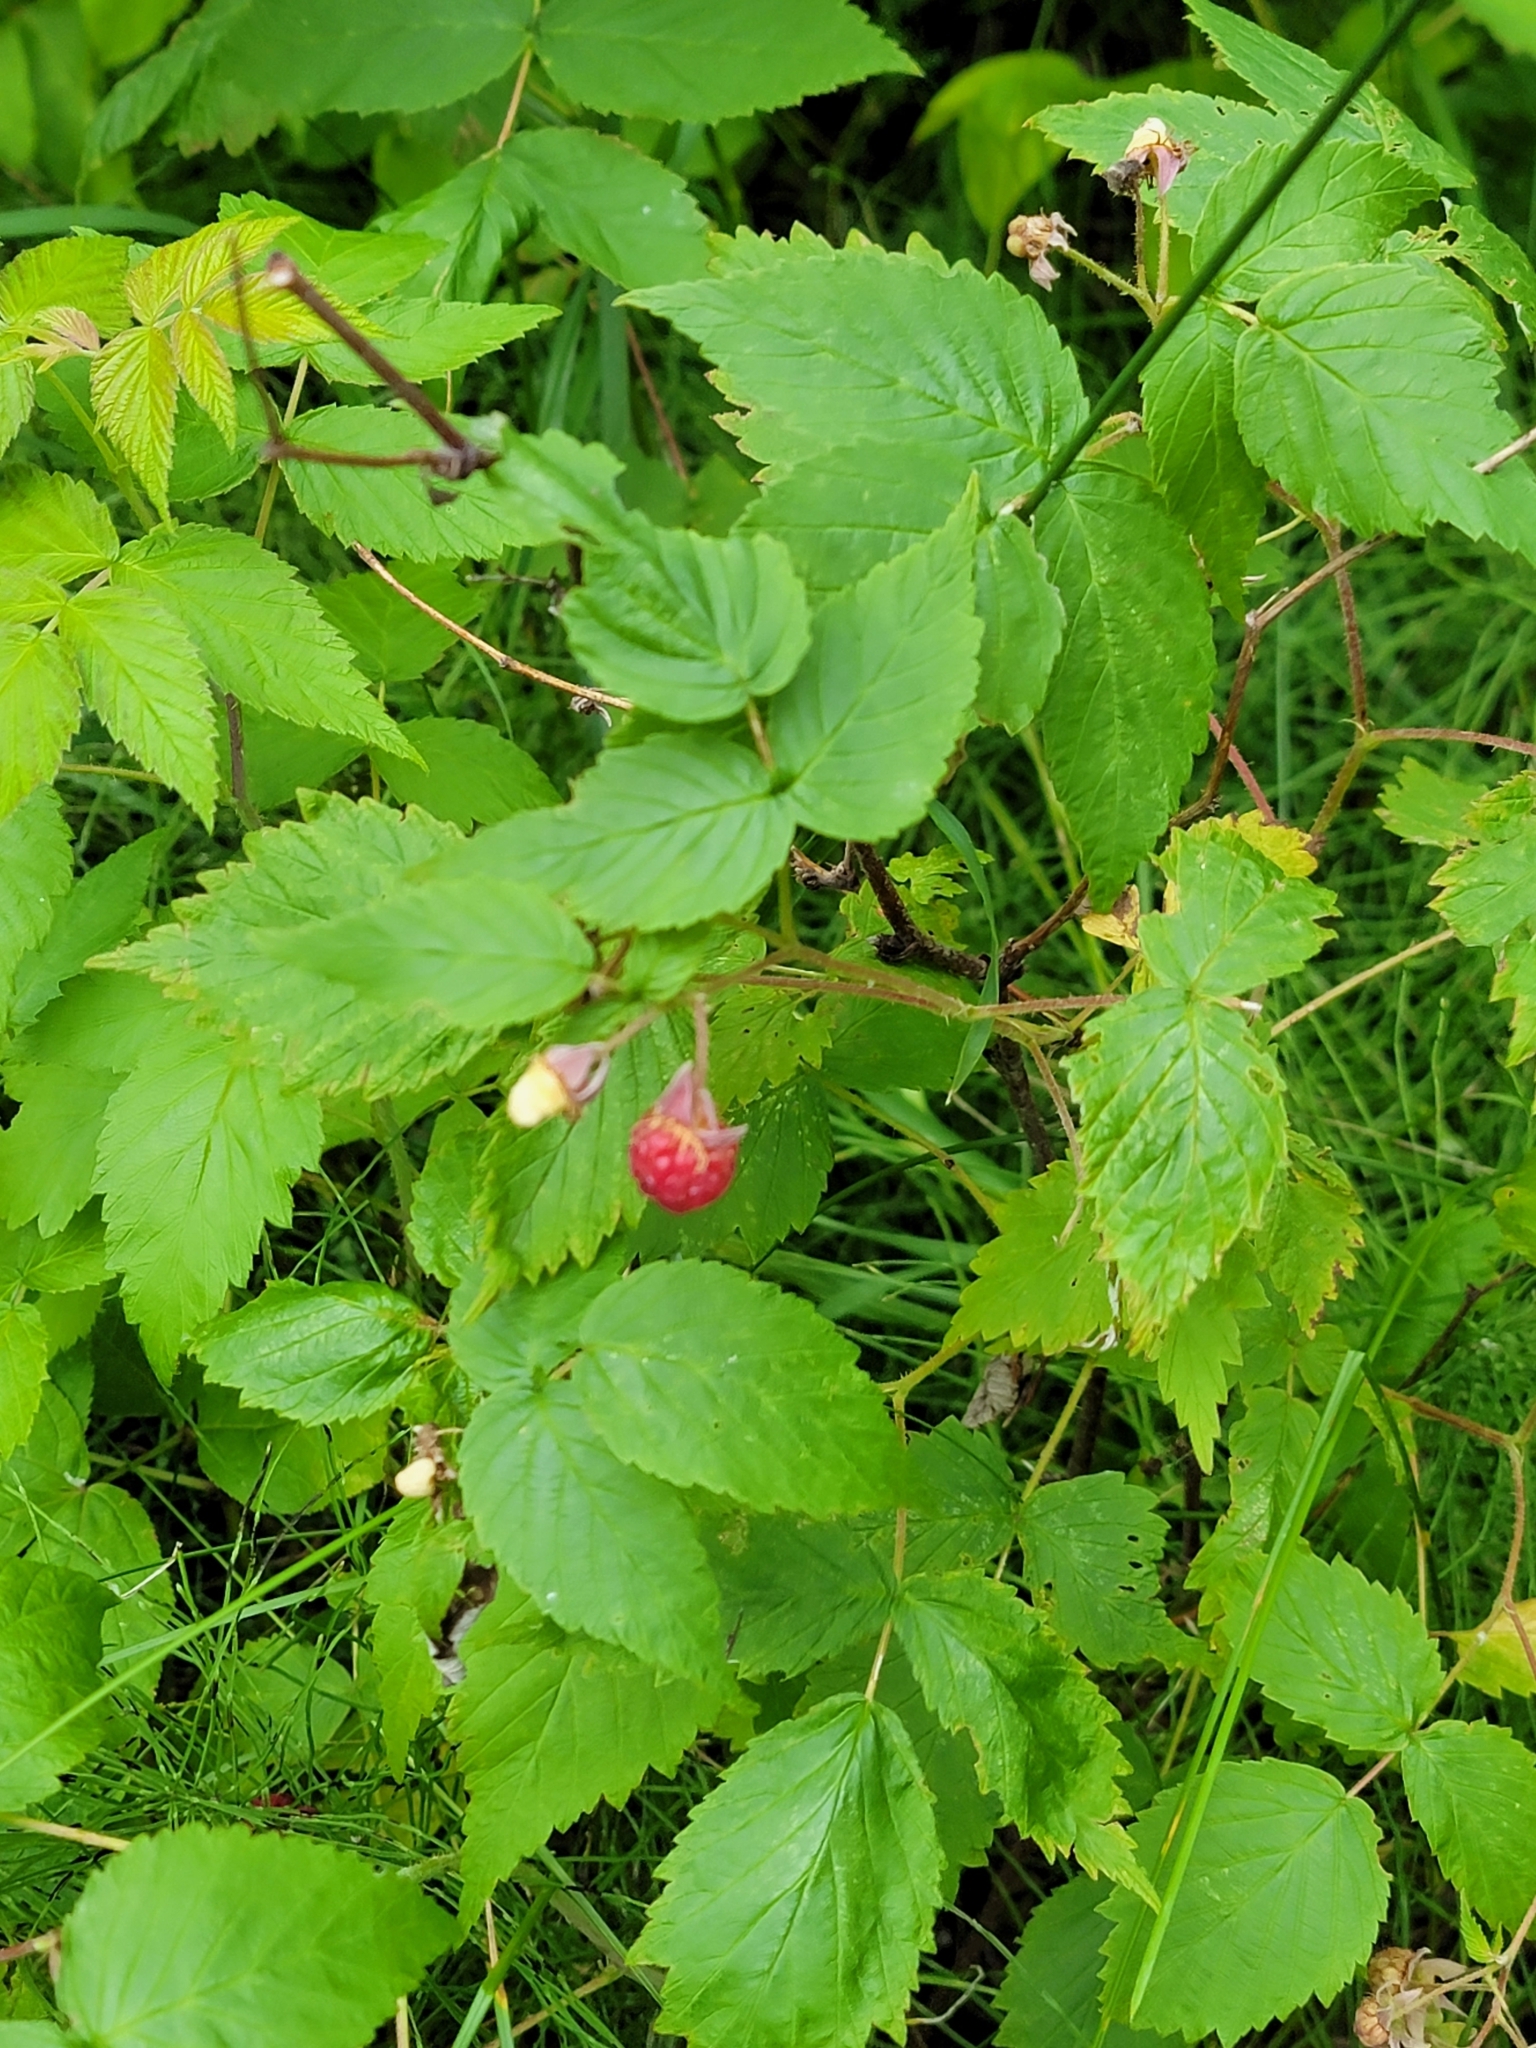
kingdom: Plantae
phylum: Tracheophyta
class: Magnoliopsida
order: Rosales
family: Rosaceae
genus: Rubus
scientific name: Rubus idaeus
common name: Raspberry
